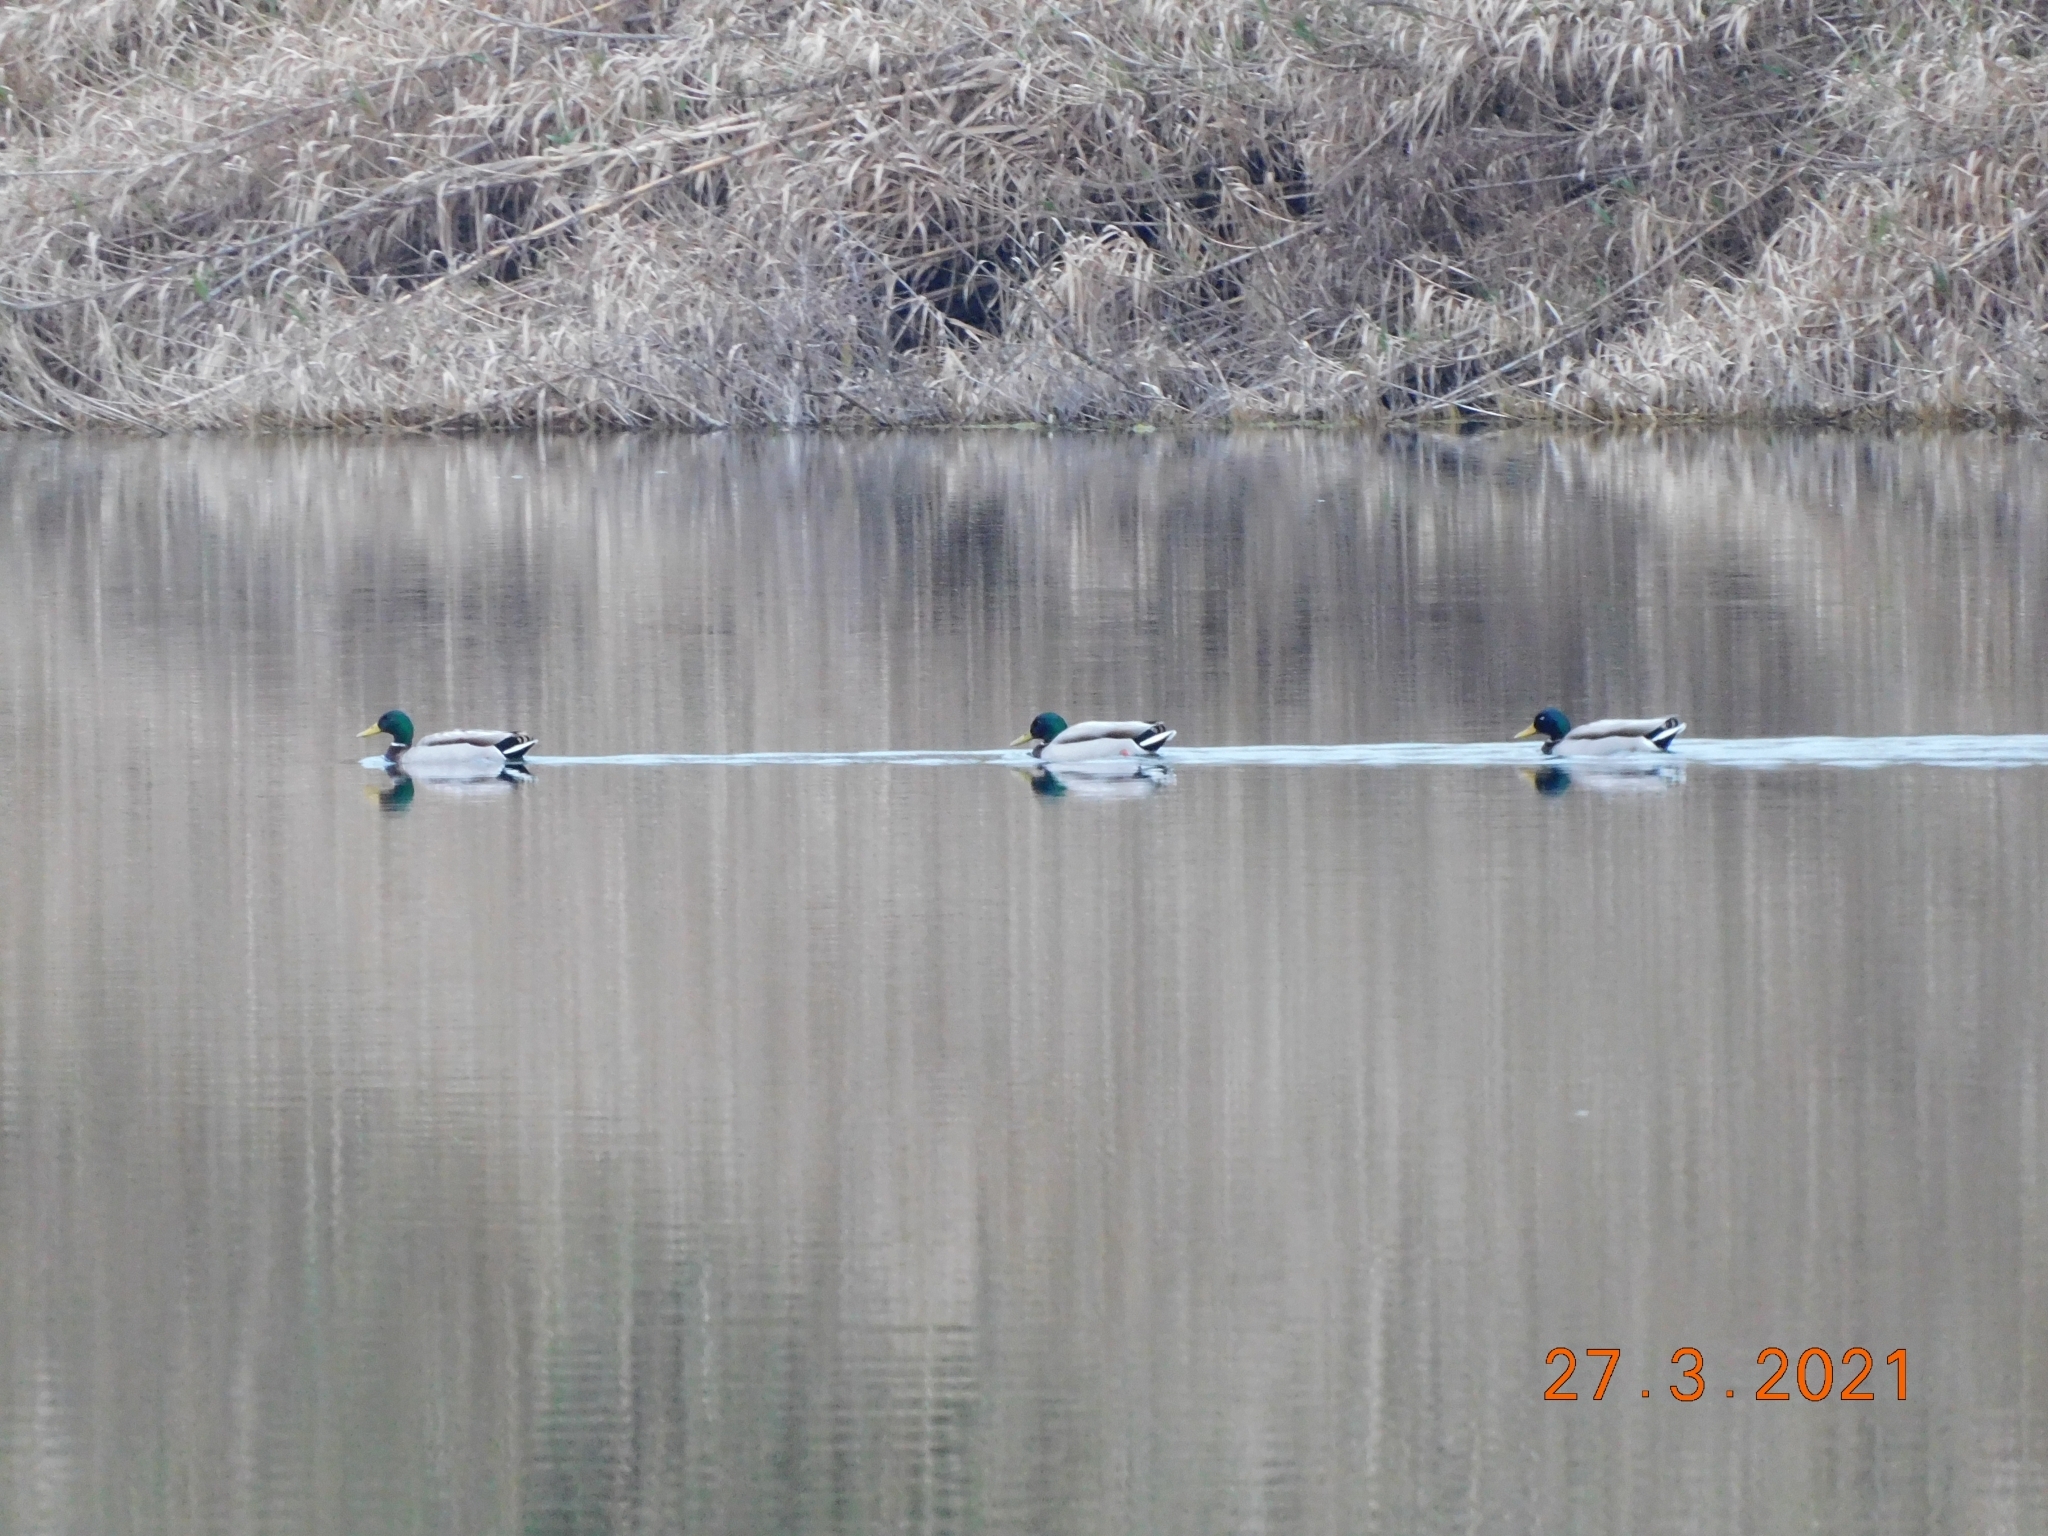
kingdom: Animalia
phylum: Chordata
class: Aves
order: Anseriformes
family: Anatidae
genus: Anas
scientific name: Anas platyrhynchos
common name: Mallard
